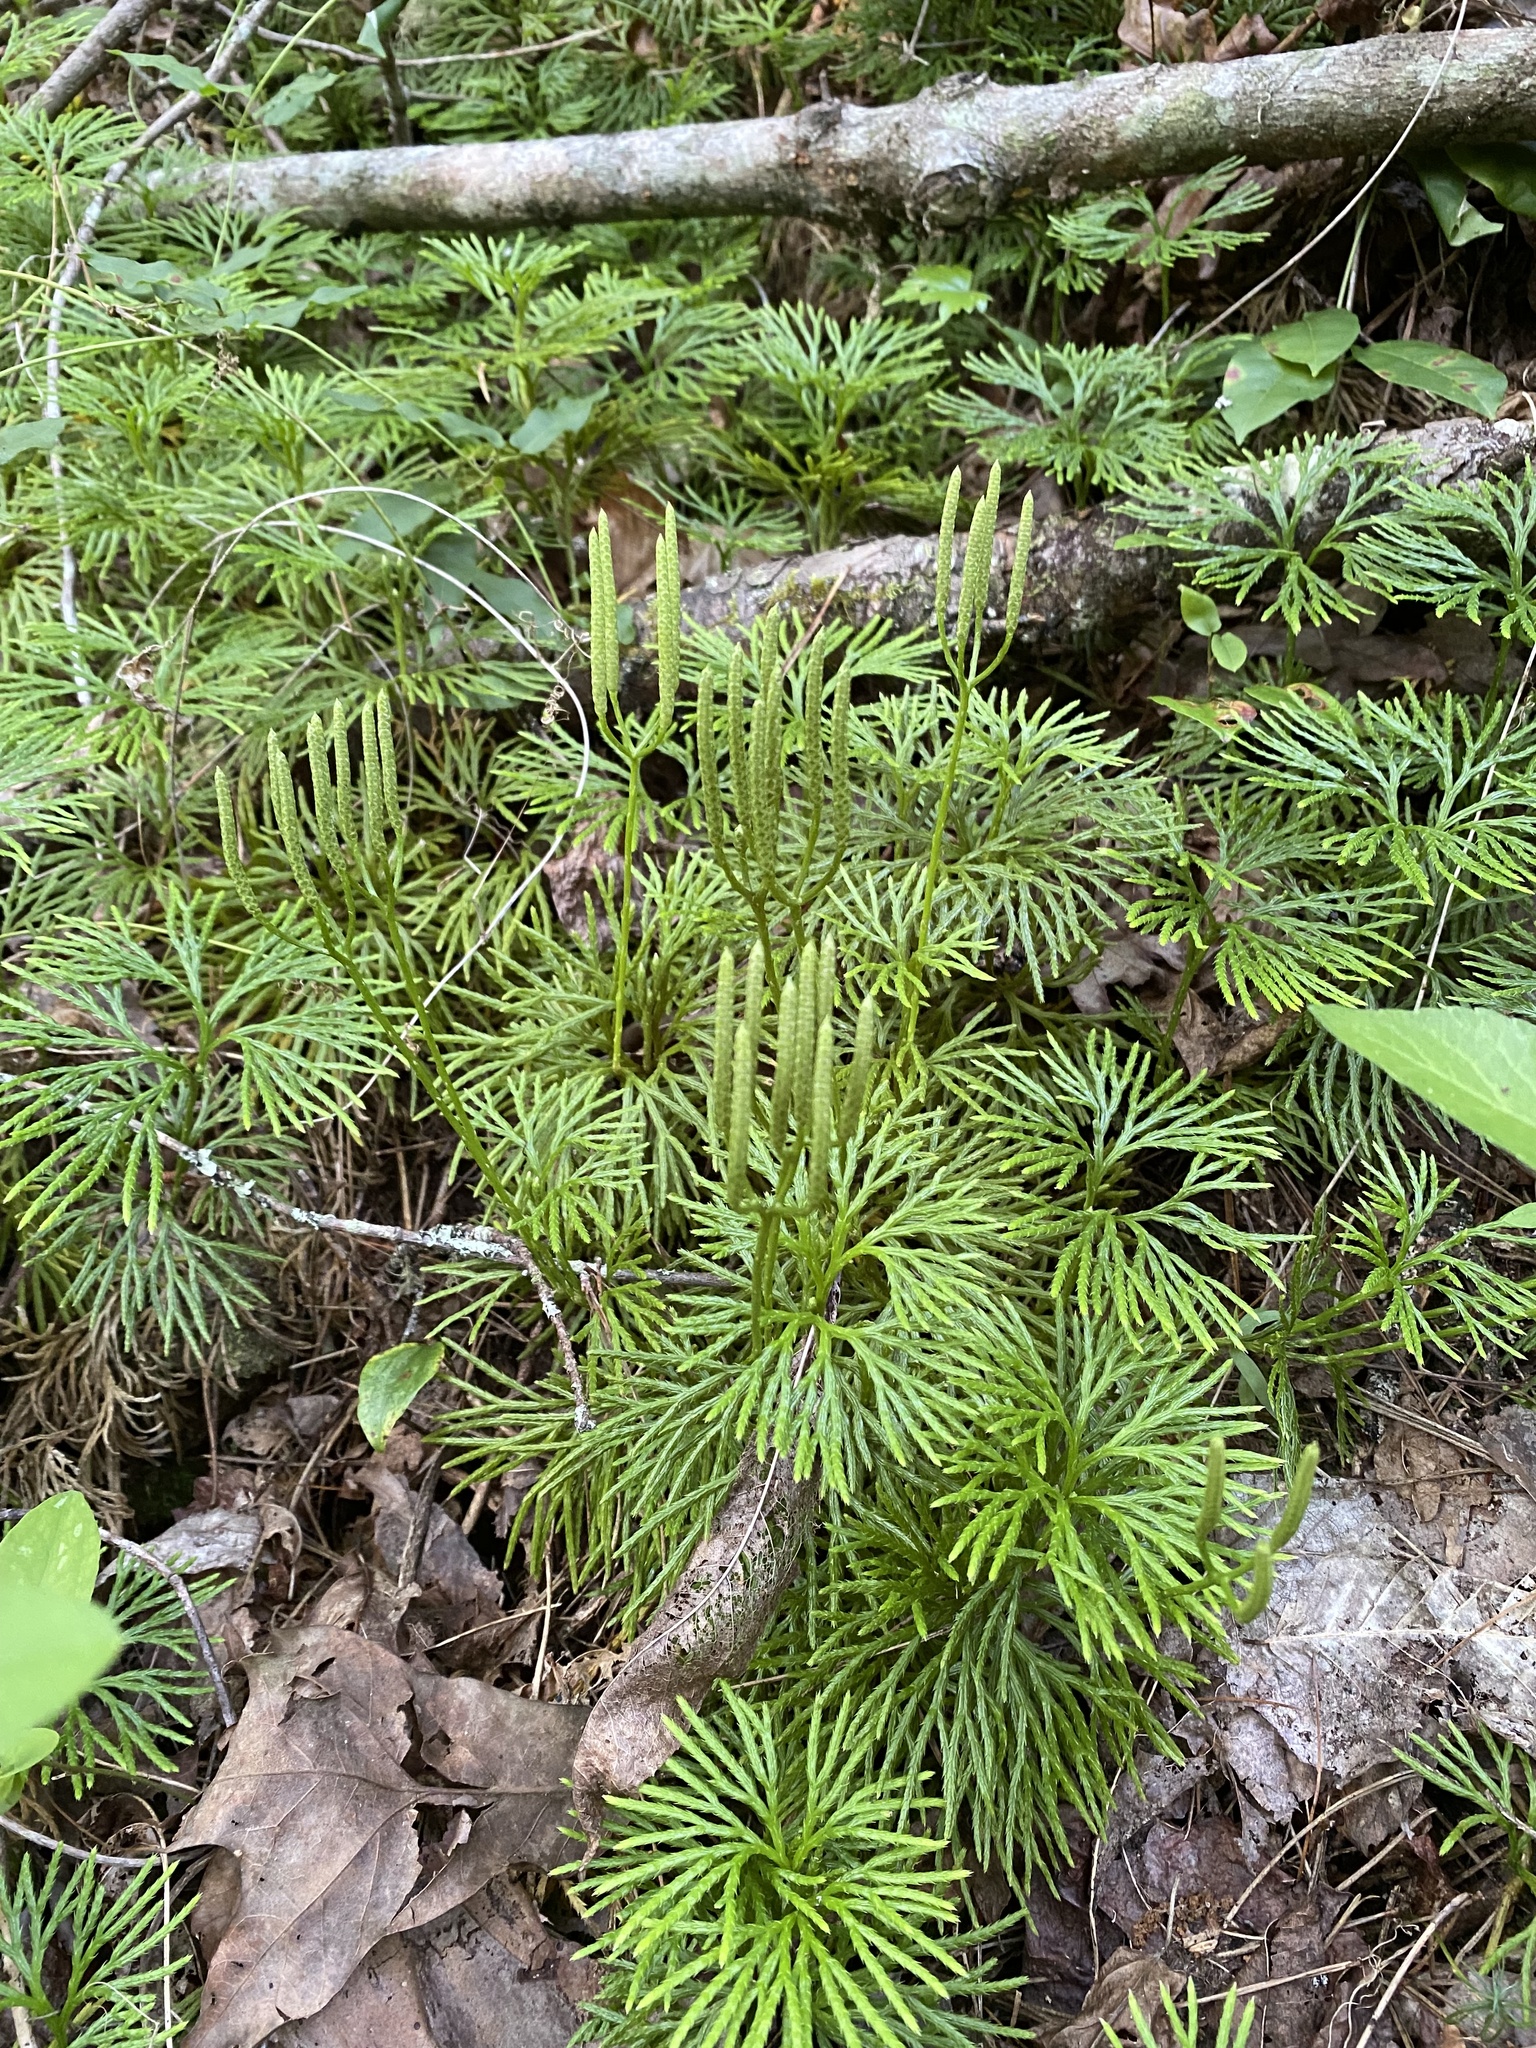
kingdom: Plantae
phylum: Tracheophyta
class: Lycopodiopsida
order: Lycopodiales
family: Lycopodiaceae
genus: Diphasiastrum
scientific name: Diphasiastrum digitatum
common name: Southern running-pine
